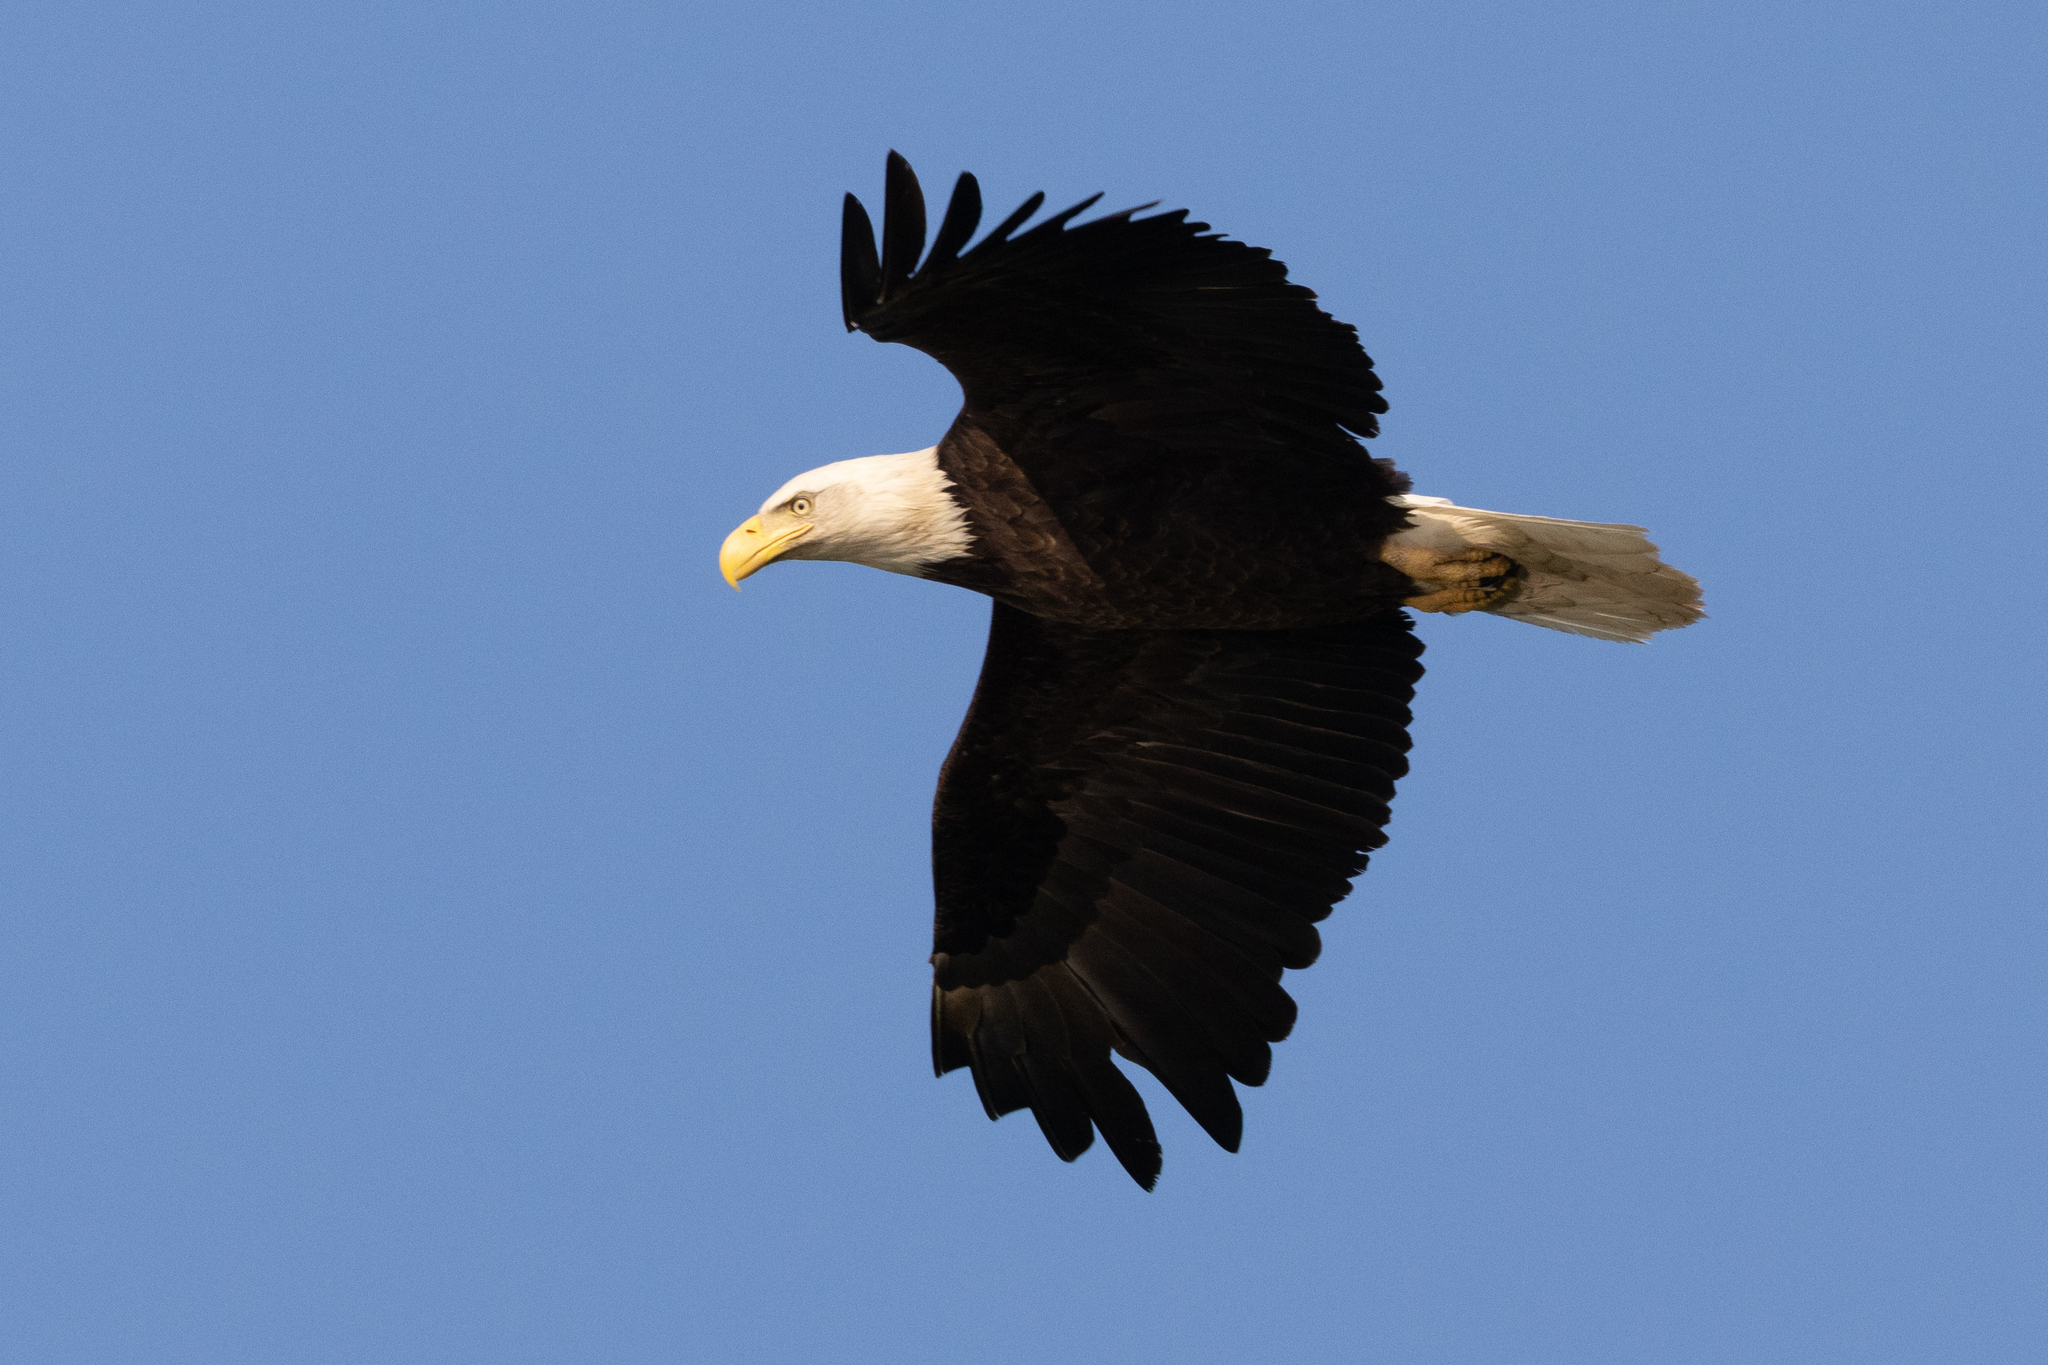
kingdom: Animalia
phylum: Chordata
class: Aves
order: Accipitriformes
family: Accipitridae
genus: Haliaeetus
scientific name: Haliaeetus leucocephalus
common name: Bald eagle
